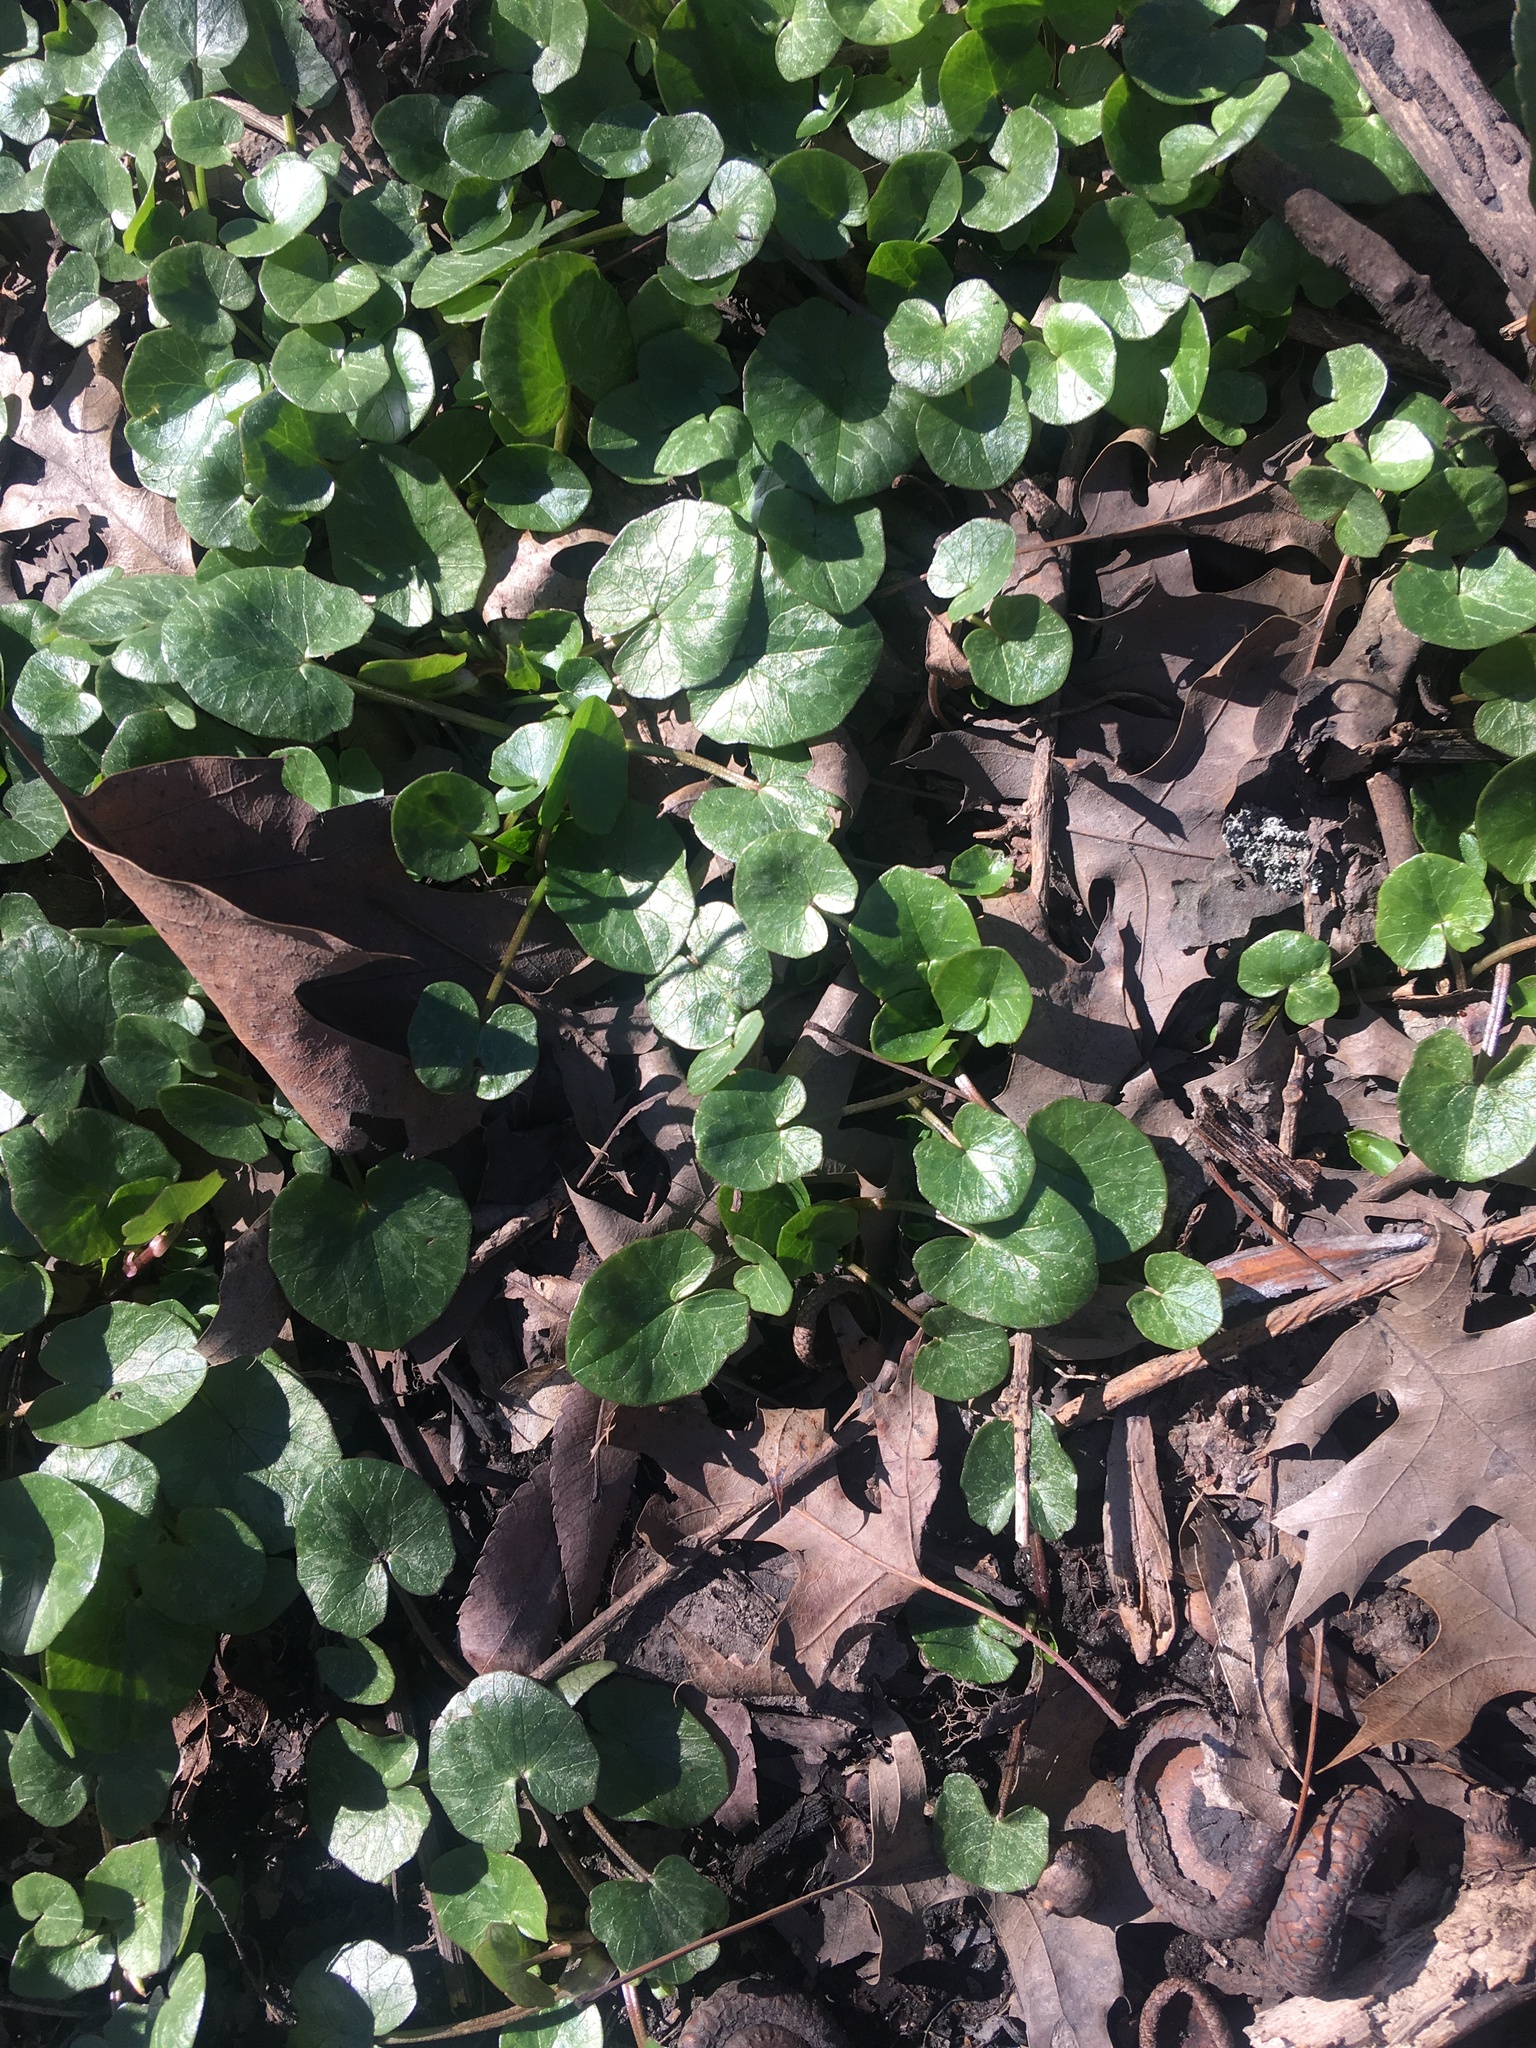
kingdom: Plantae
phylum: Tracheophyta
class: Magnoliopsida
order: Ranunculales
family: Ranunculaceae
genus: Ficaria
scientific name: Ficaria verna
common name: Lesser celandine
